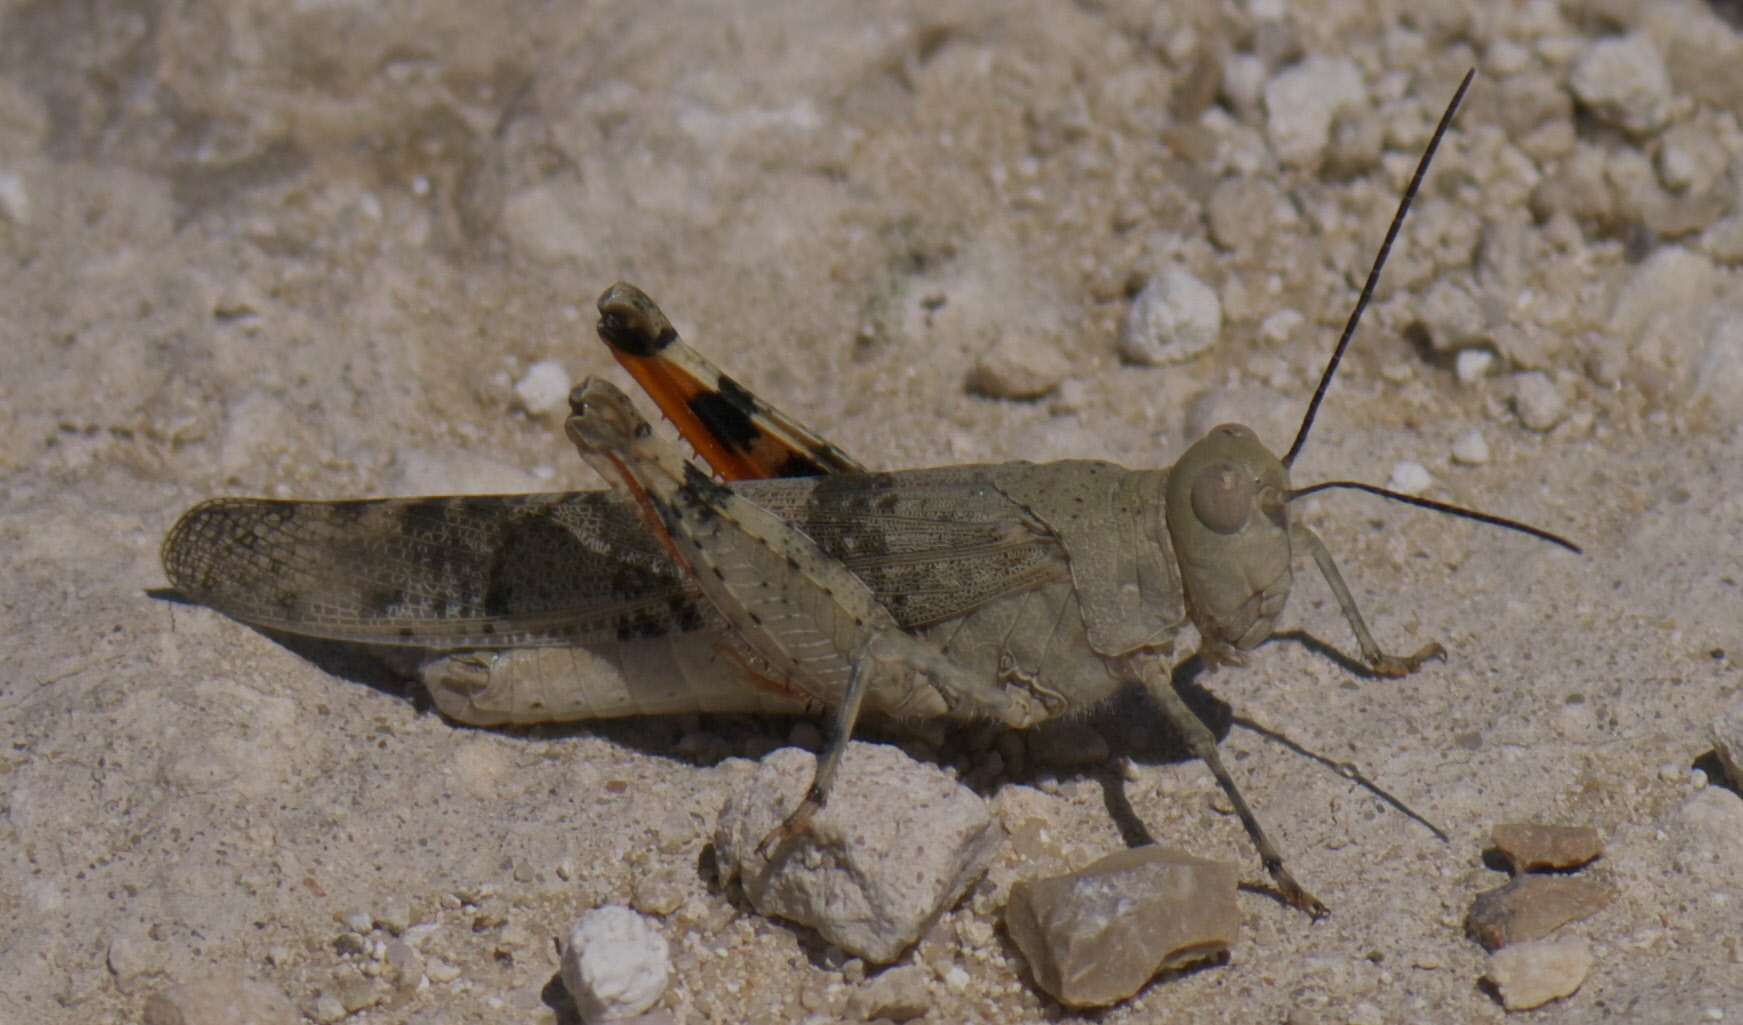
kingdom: Animalia
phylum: Arthropoda
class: Insecta
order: Orthoptera
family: Acrididae
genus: Trimerotropis
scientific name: Trimerotropis pistrinaria
